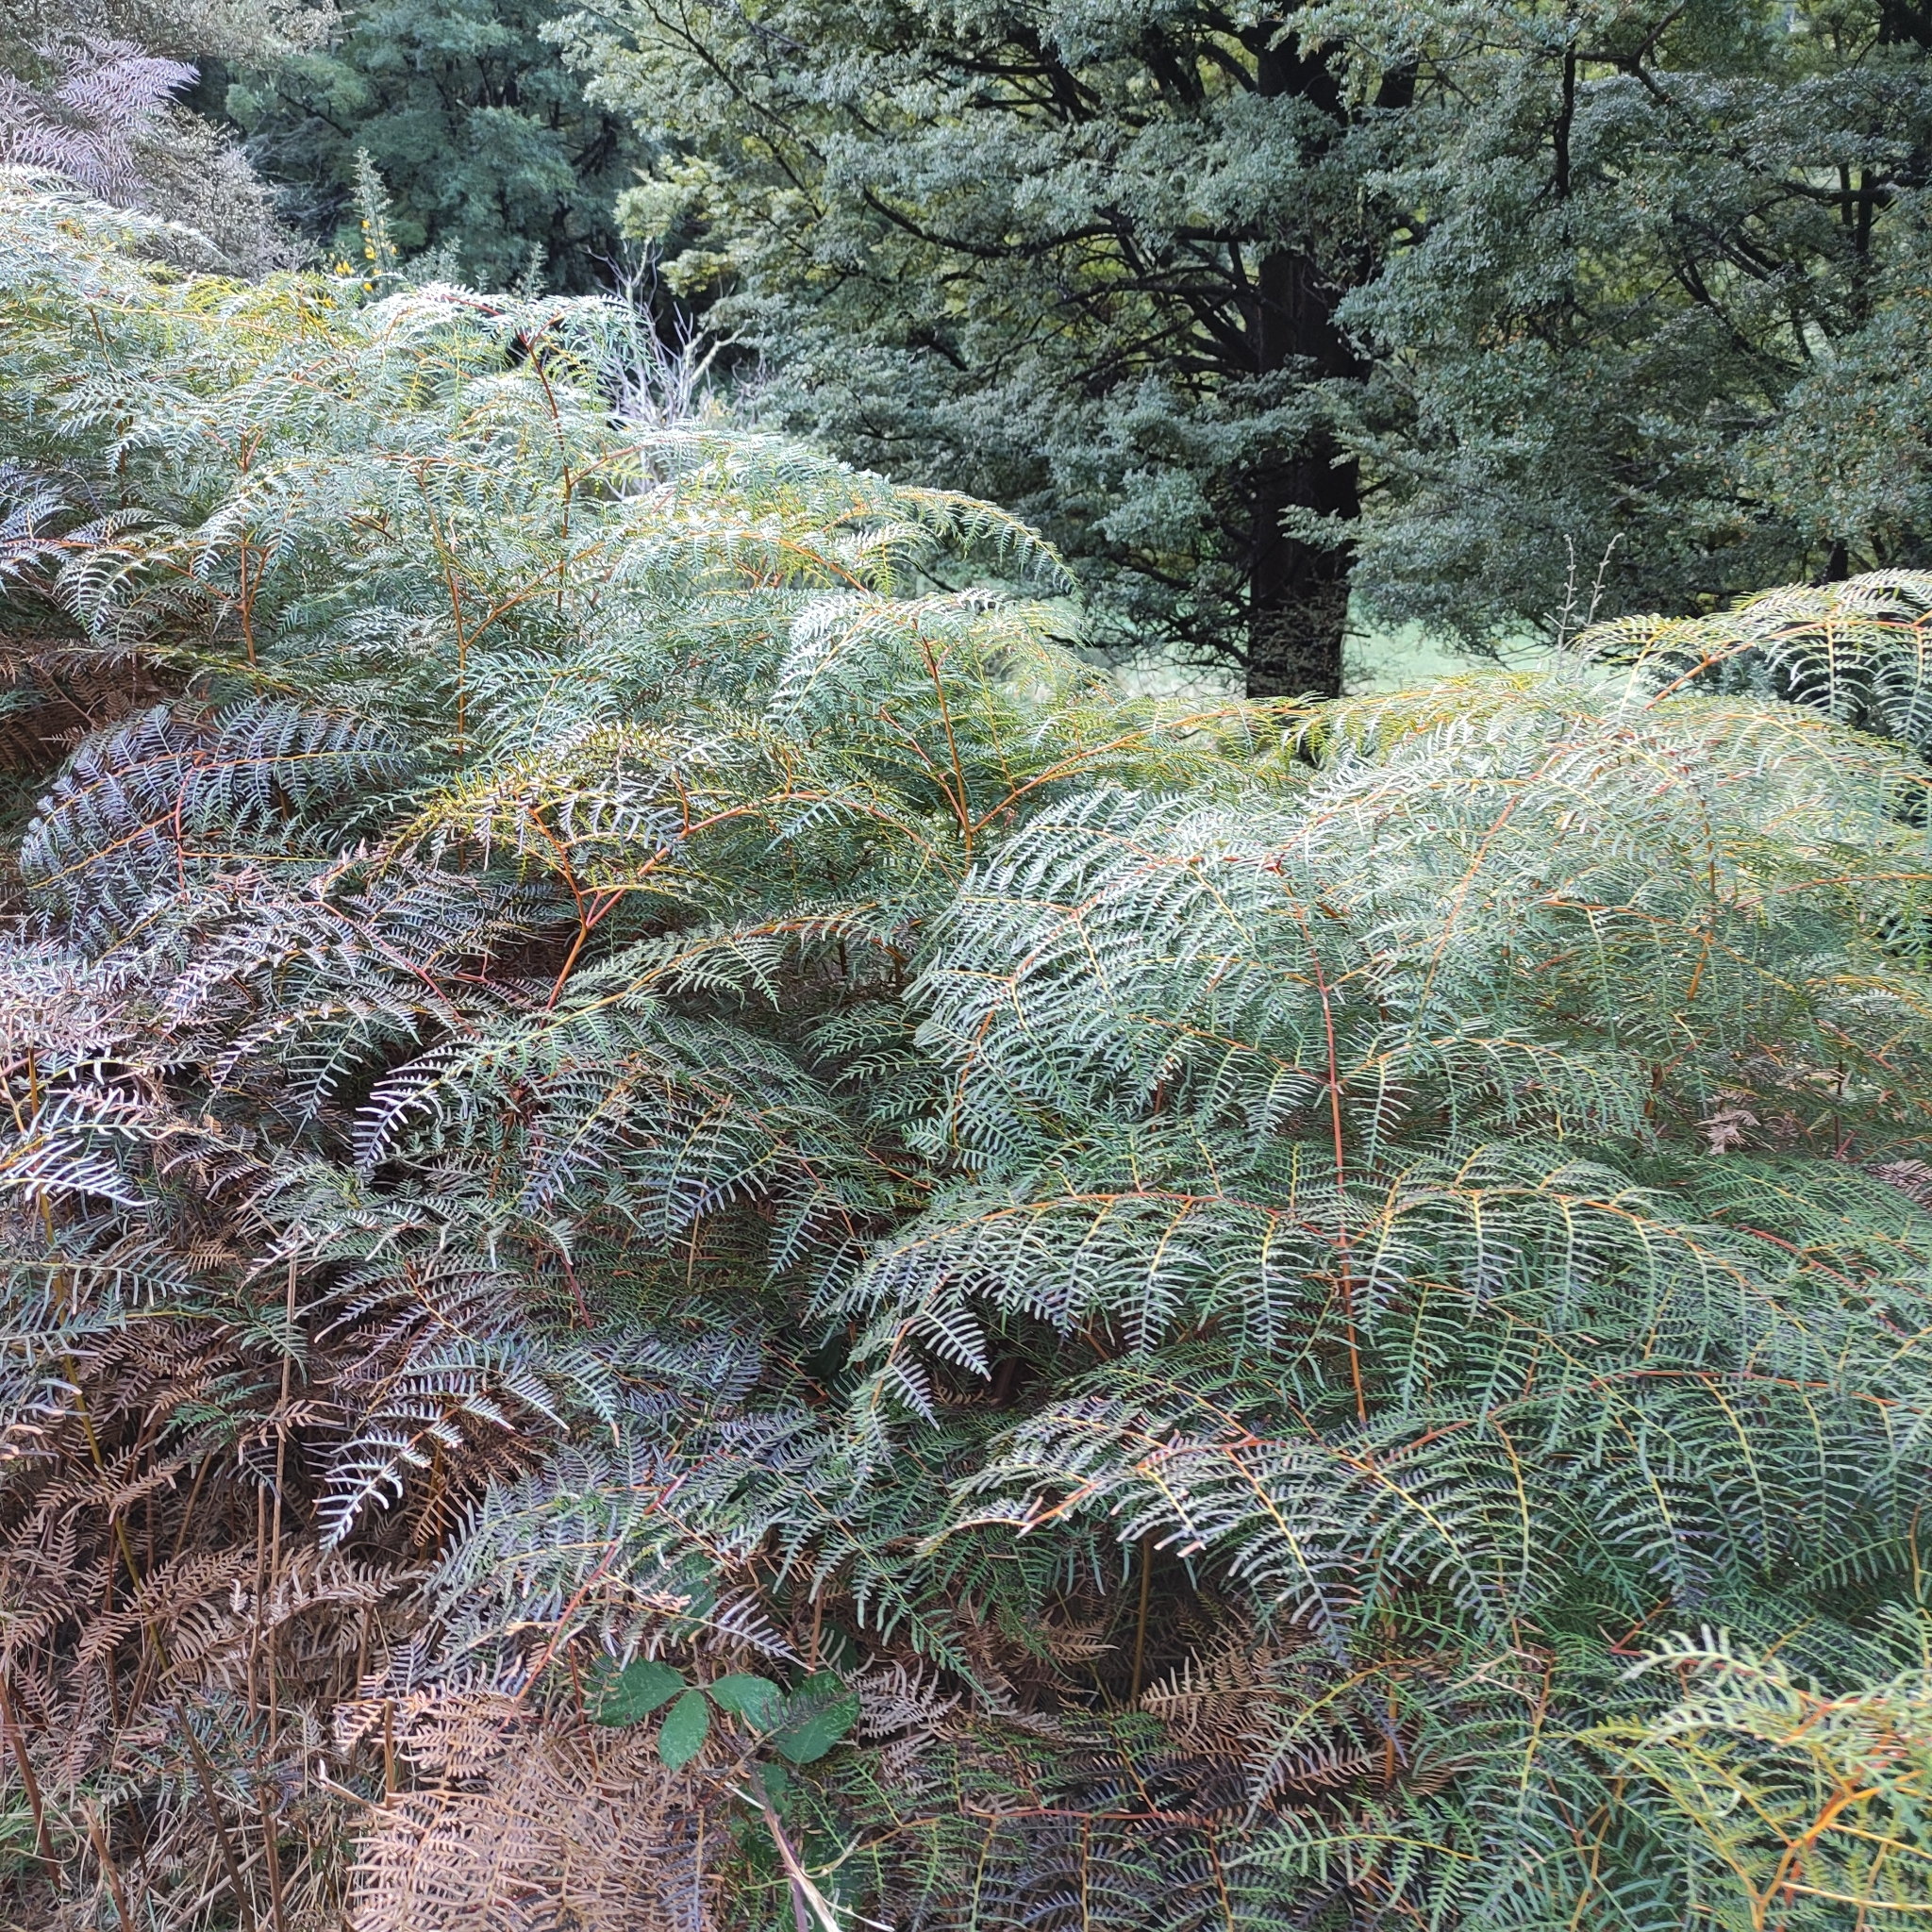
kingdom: Plantae
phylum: Tracheophyta
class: Polypodiopsida
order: Polypodiales
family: Dennstaedtiaceae
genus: Pteridium
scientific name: Pteridium esculentum
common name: Bracken fern
